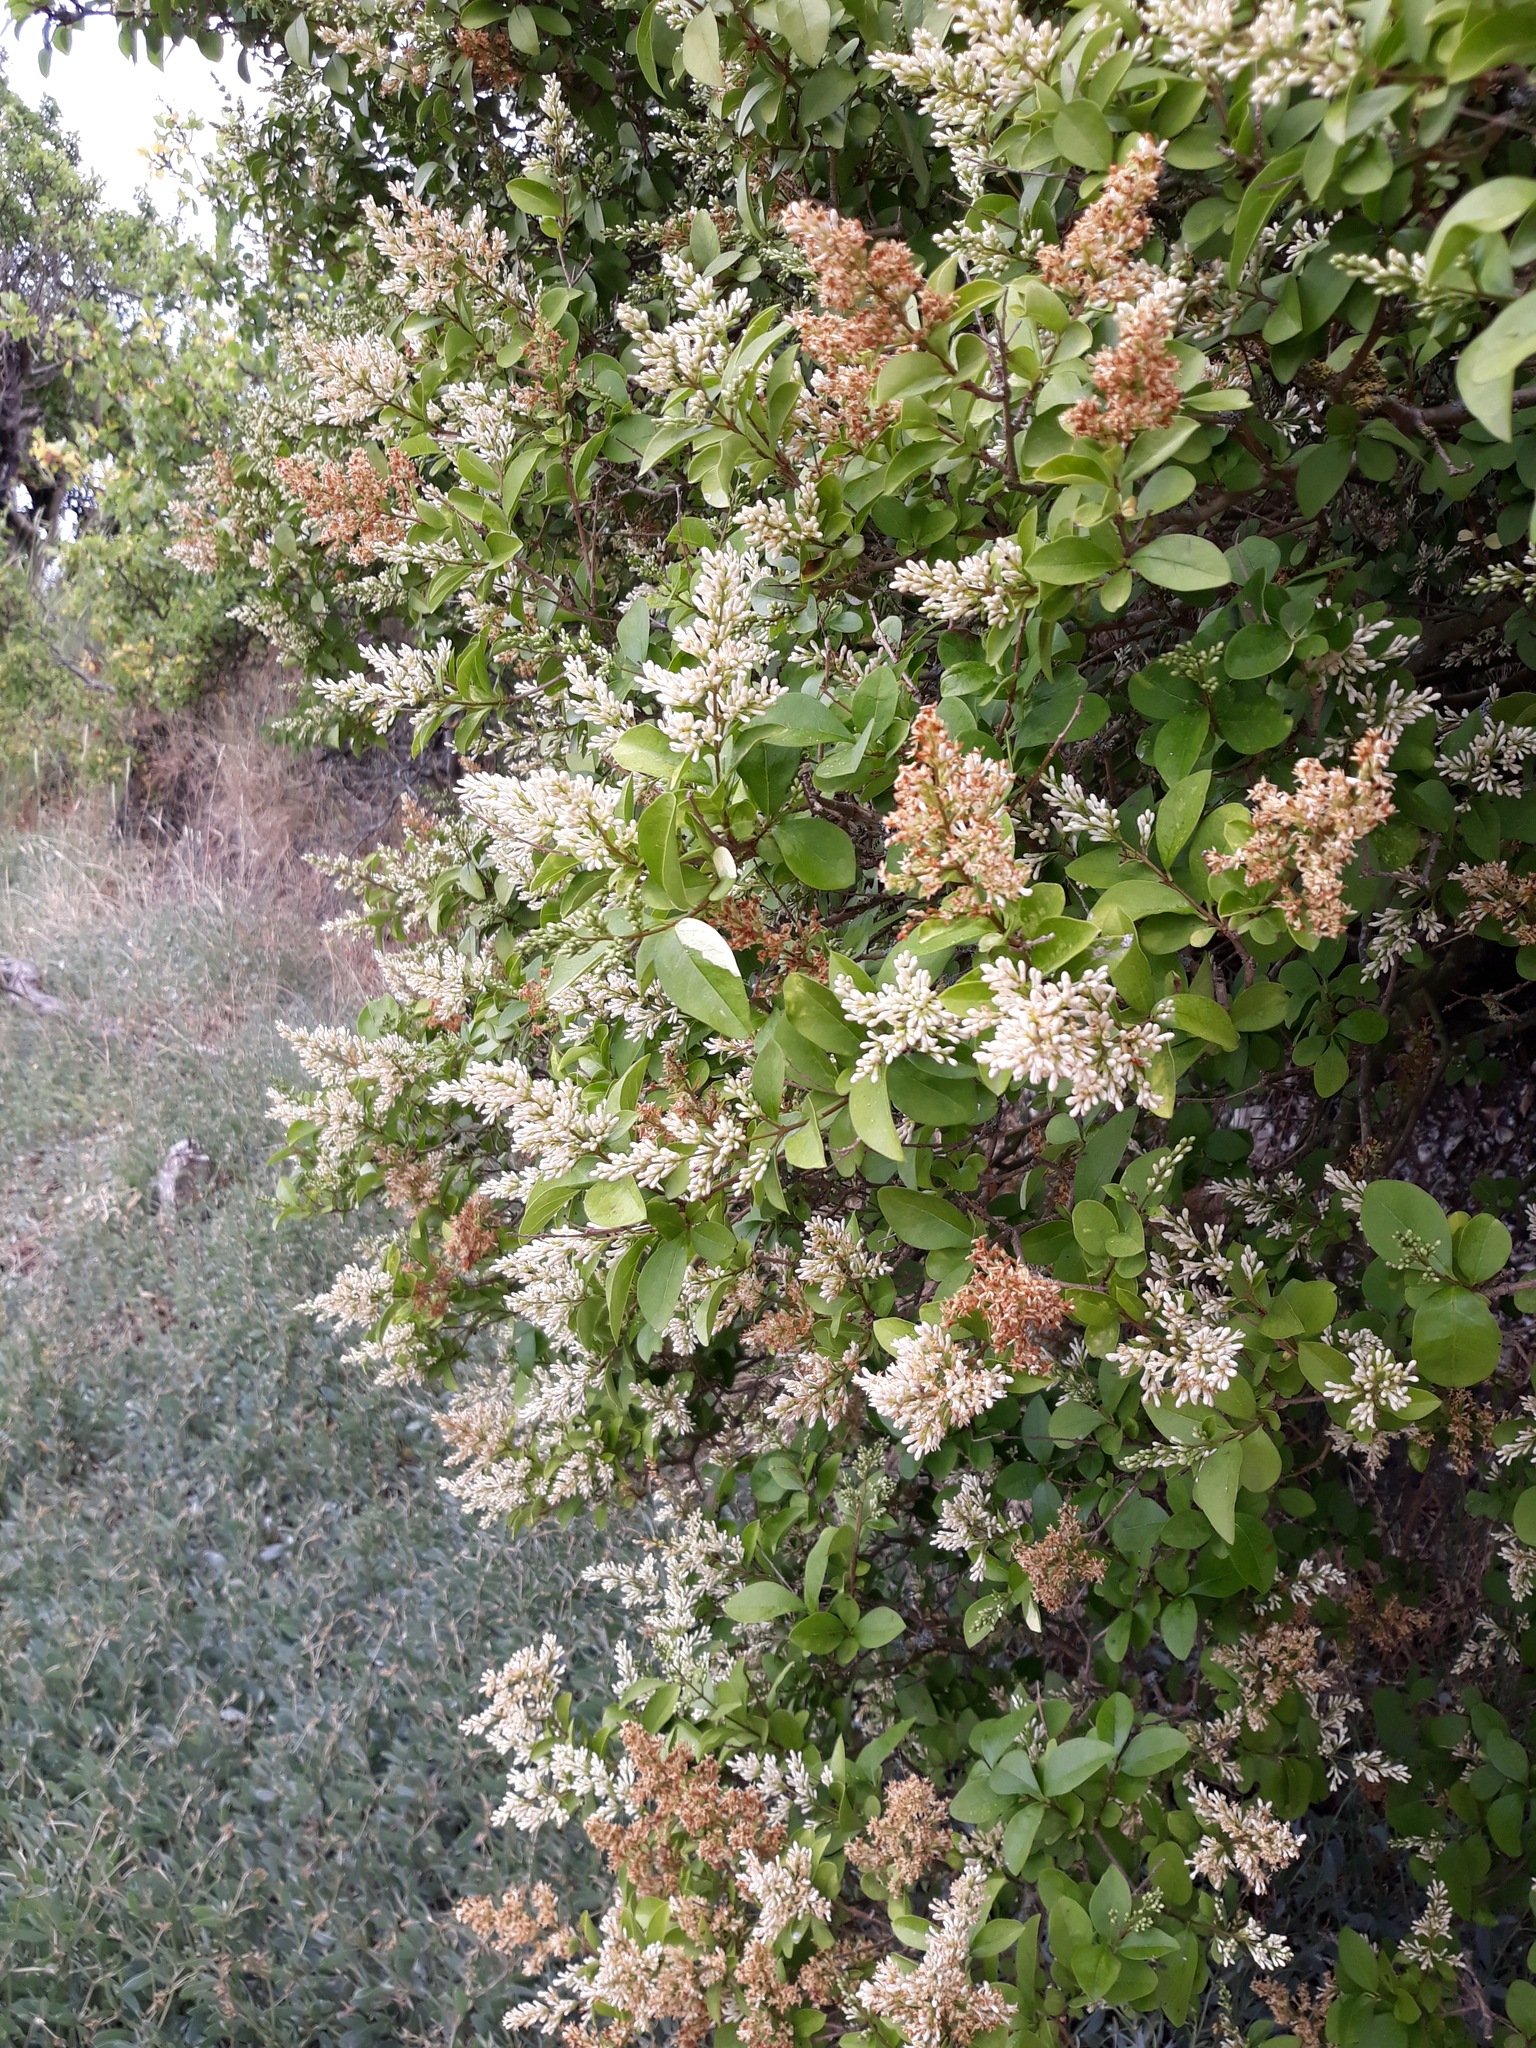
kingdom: Plantae
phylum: Tracheophyta
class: Magnoliopsida
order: Lamiales
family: Oleaceae
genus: Ligustrum
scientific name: Ligustrum vulgare
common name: Wild privet
